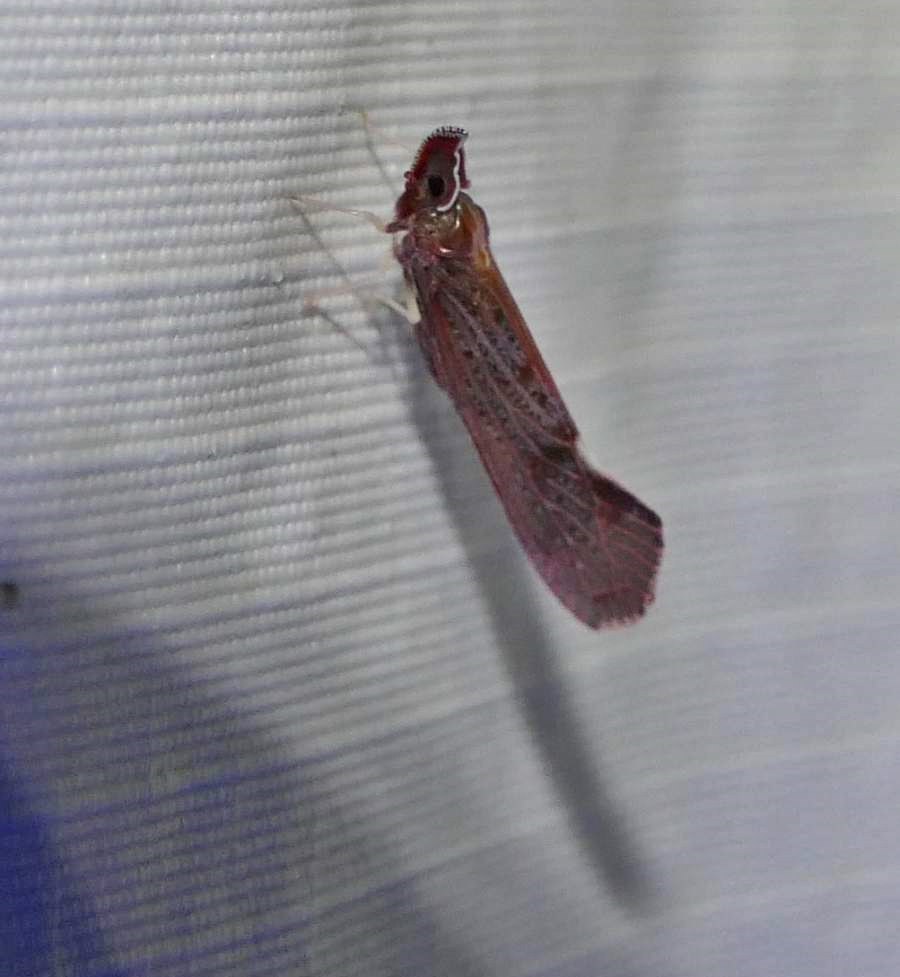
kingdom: Animalia
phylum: Arthropoda
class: Insecta
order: Hemiptera
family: Derbidae
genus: Apache
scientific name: Apache degeeri
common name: Red-fanned planthopper
